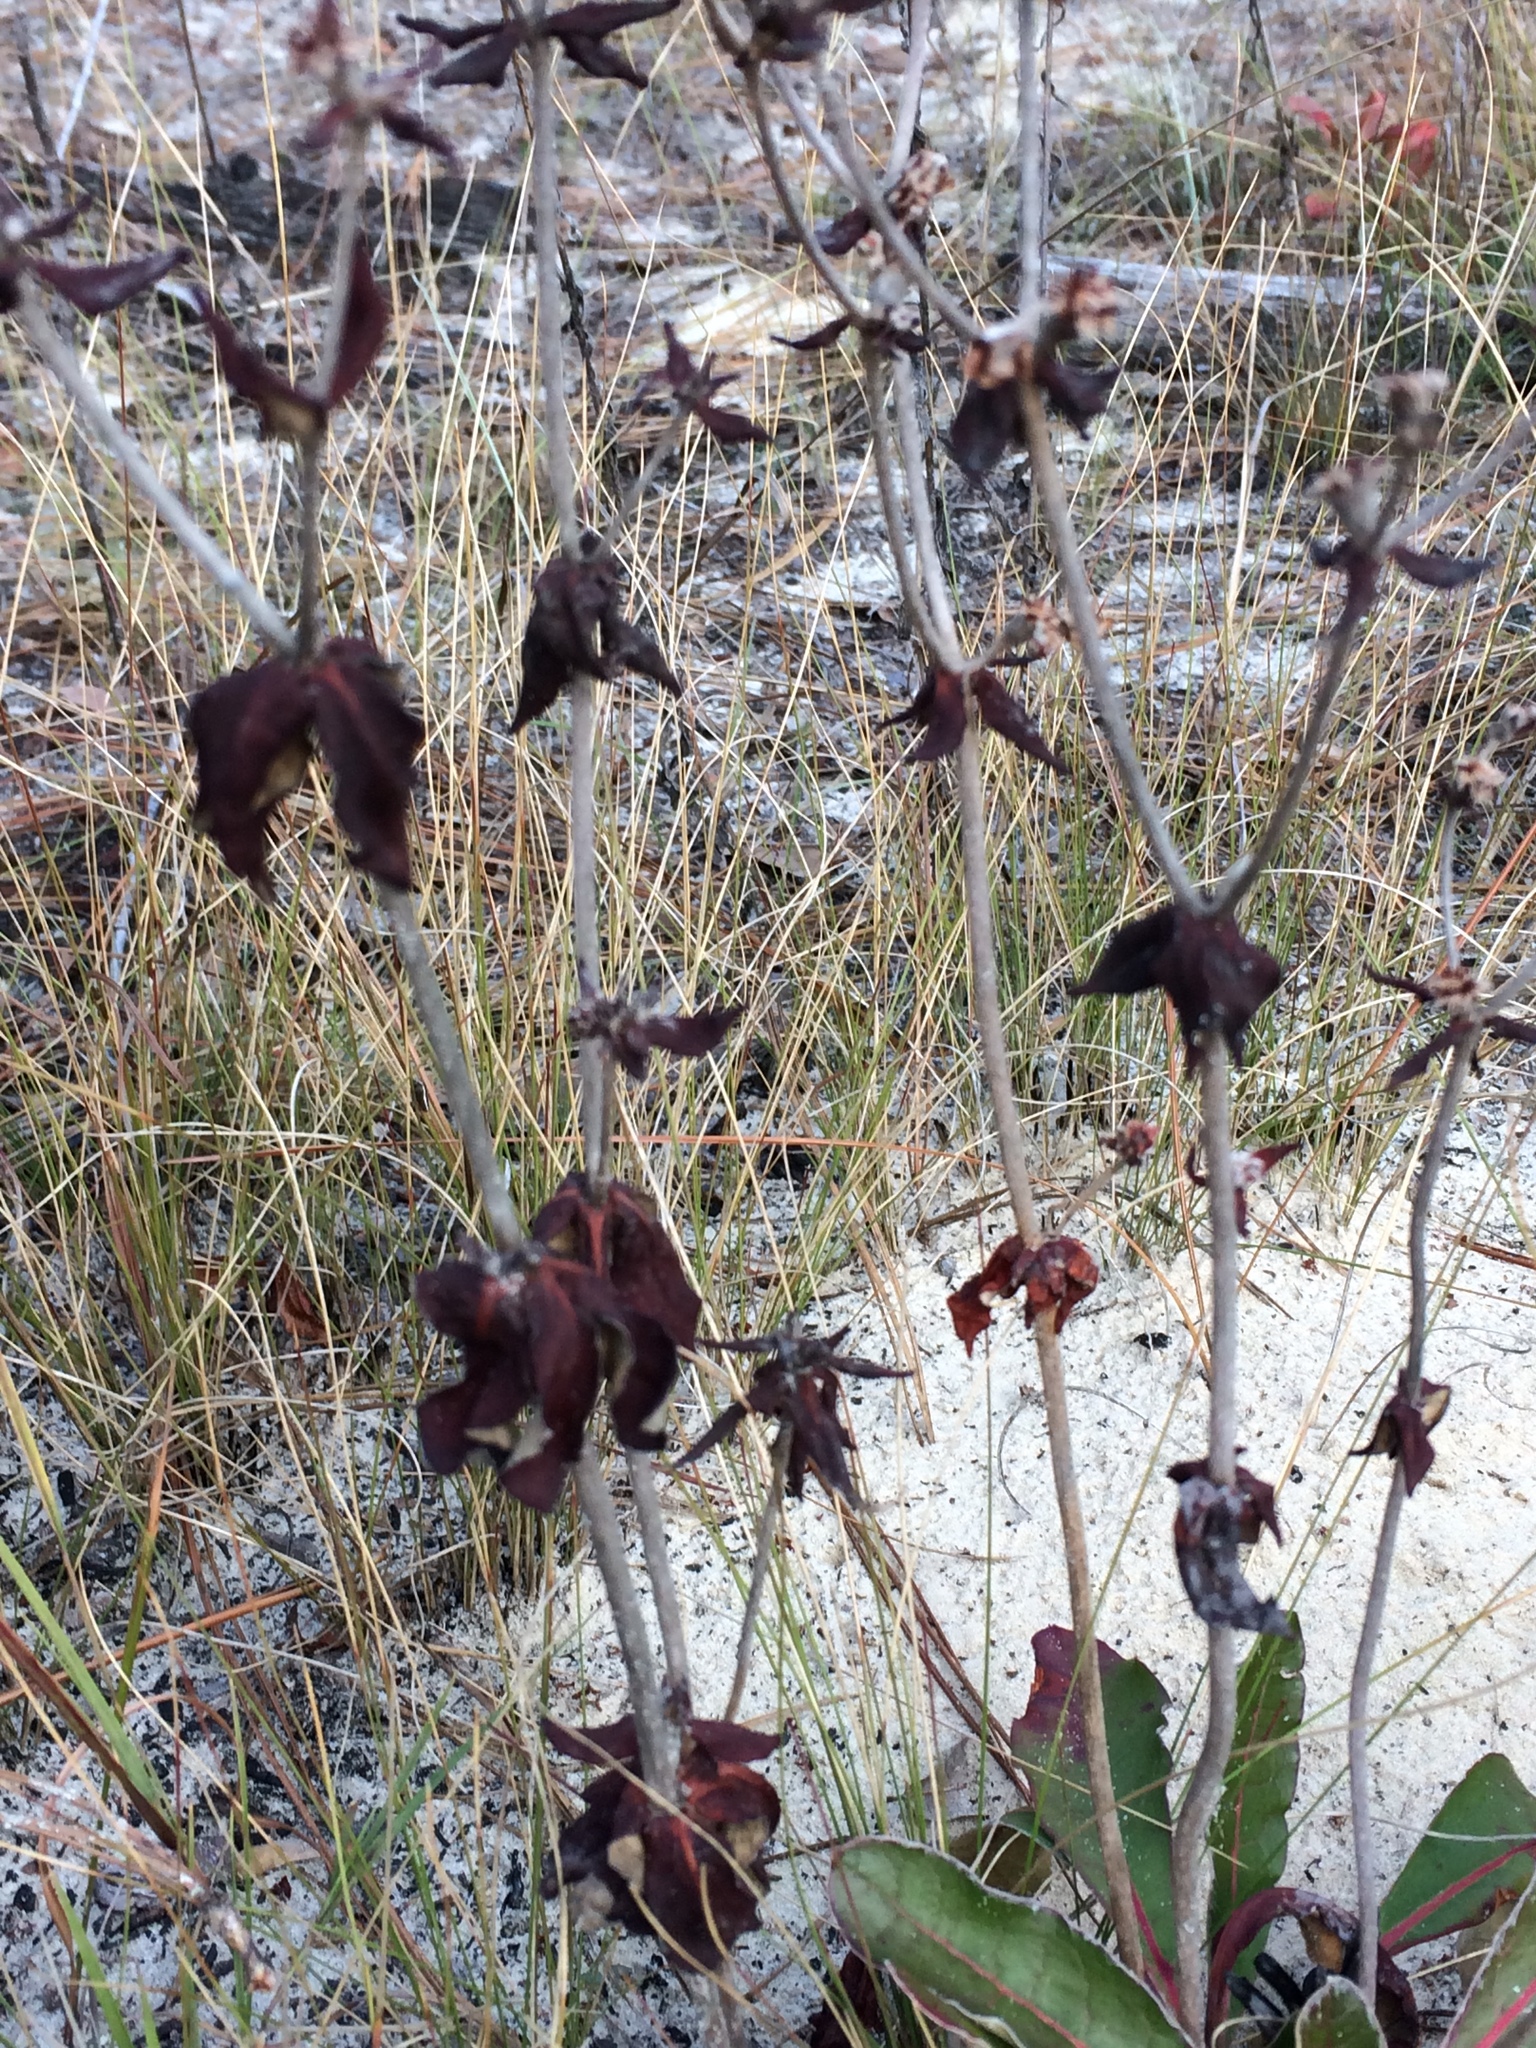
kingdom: Plantae
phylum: Tracheophyta
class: Magnoliopsida
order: Caryophyllales
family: Polygonaceae
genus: Eriogonum
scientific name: Eriogonum tomentosum
